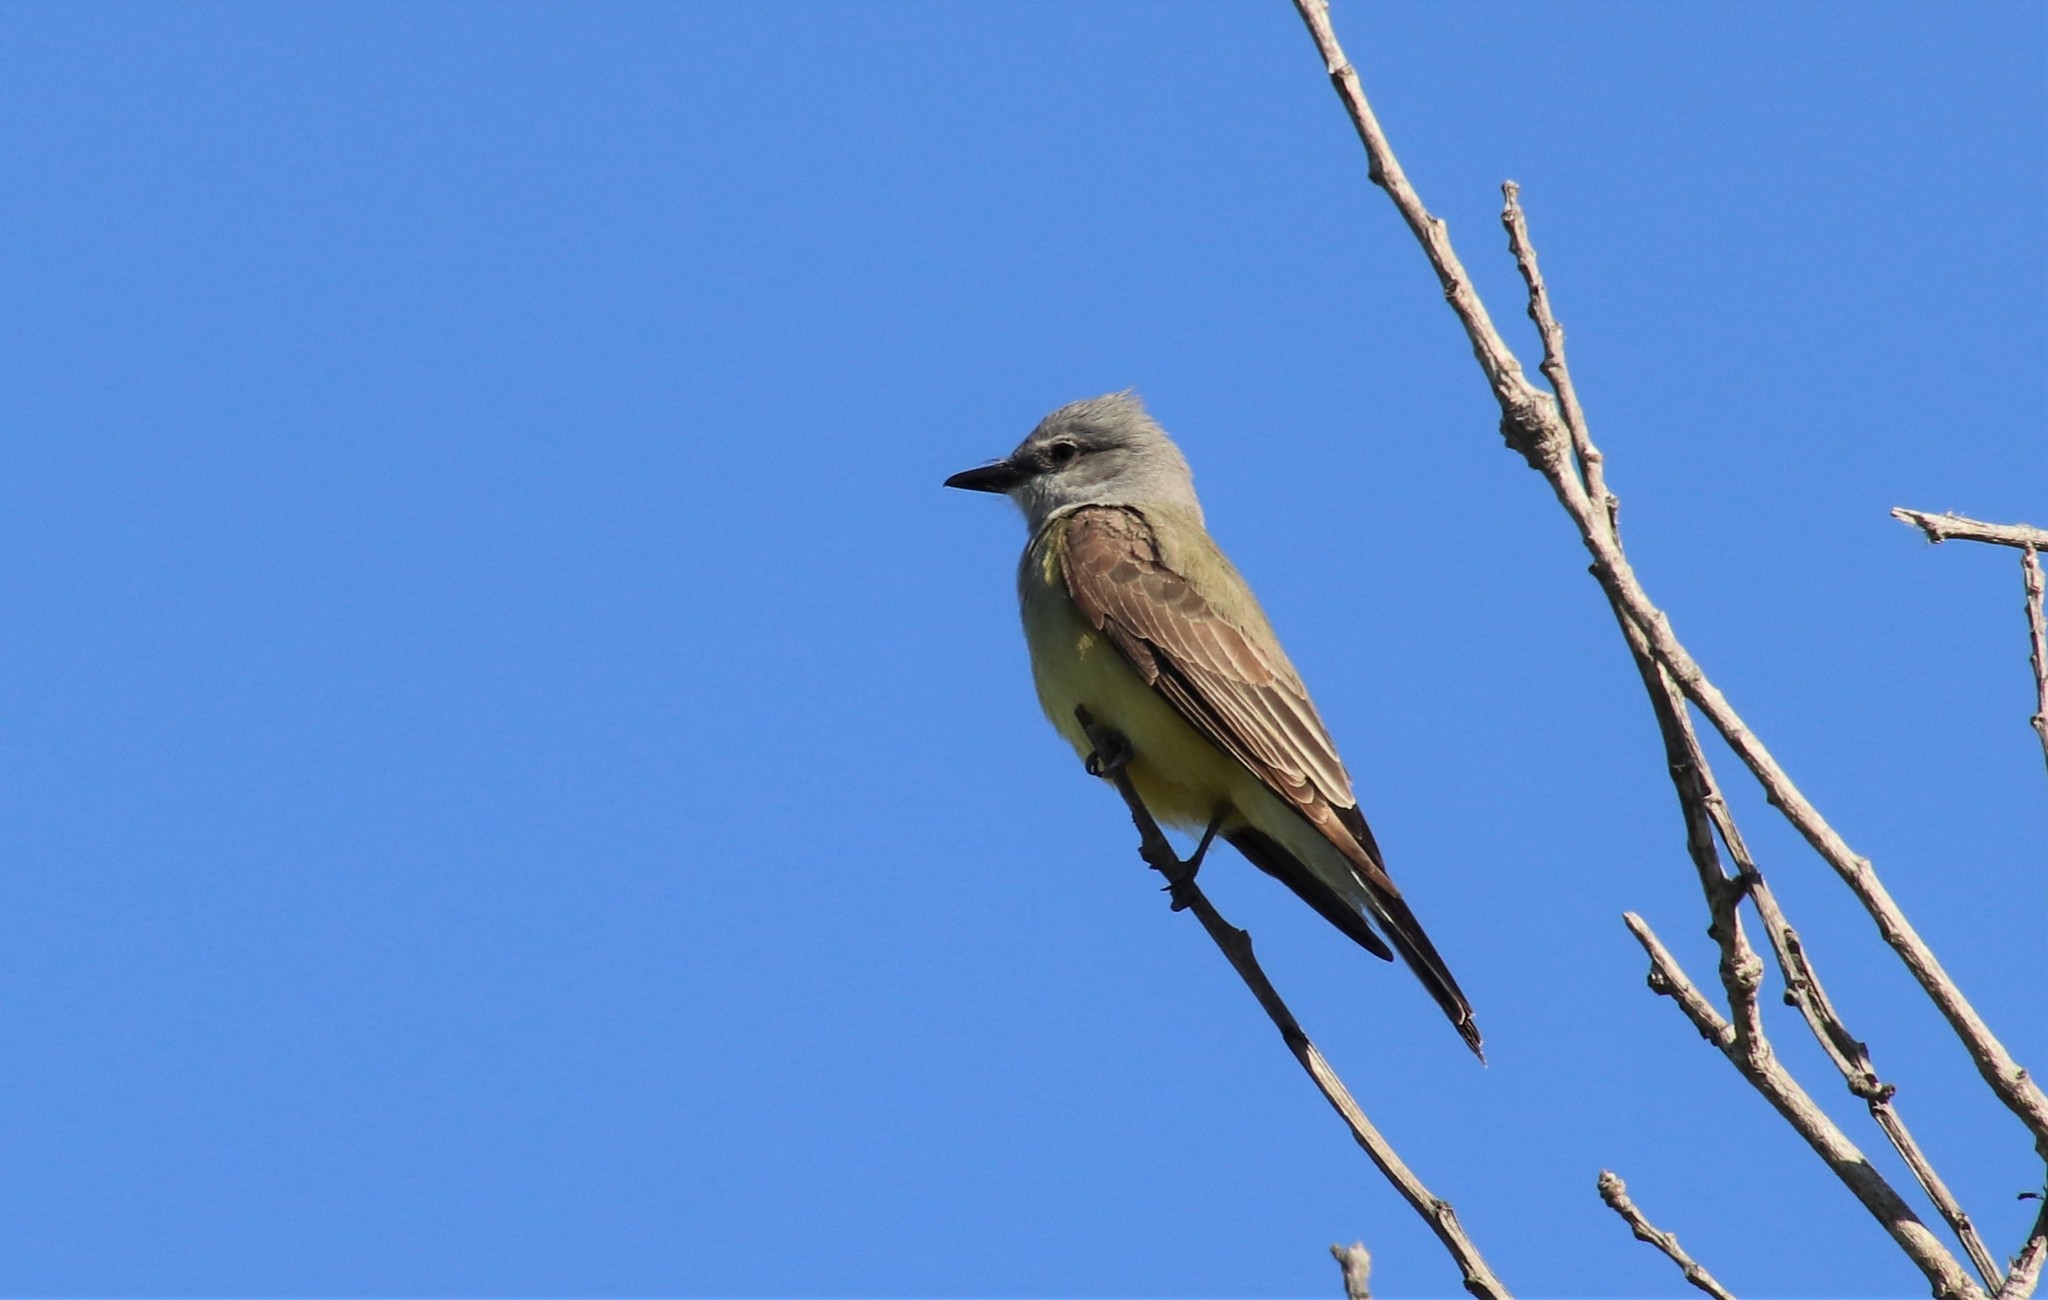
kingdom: Animalia
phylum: Chordata
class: Aves
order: Passeriformes
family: Tyrannidae
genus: Tyrannus
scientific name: Tyrannus verticalis
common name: Western kingbird
